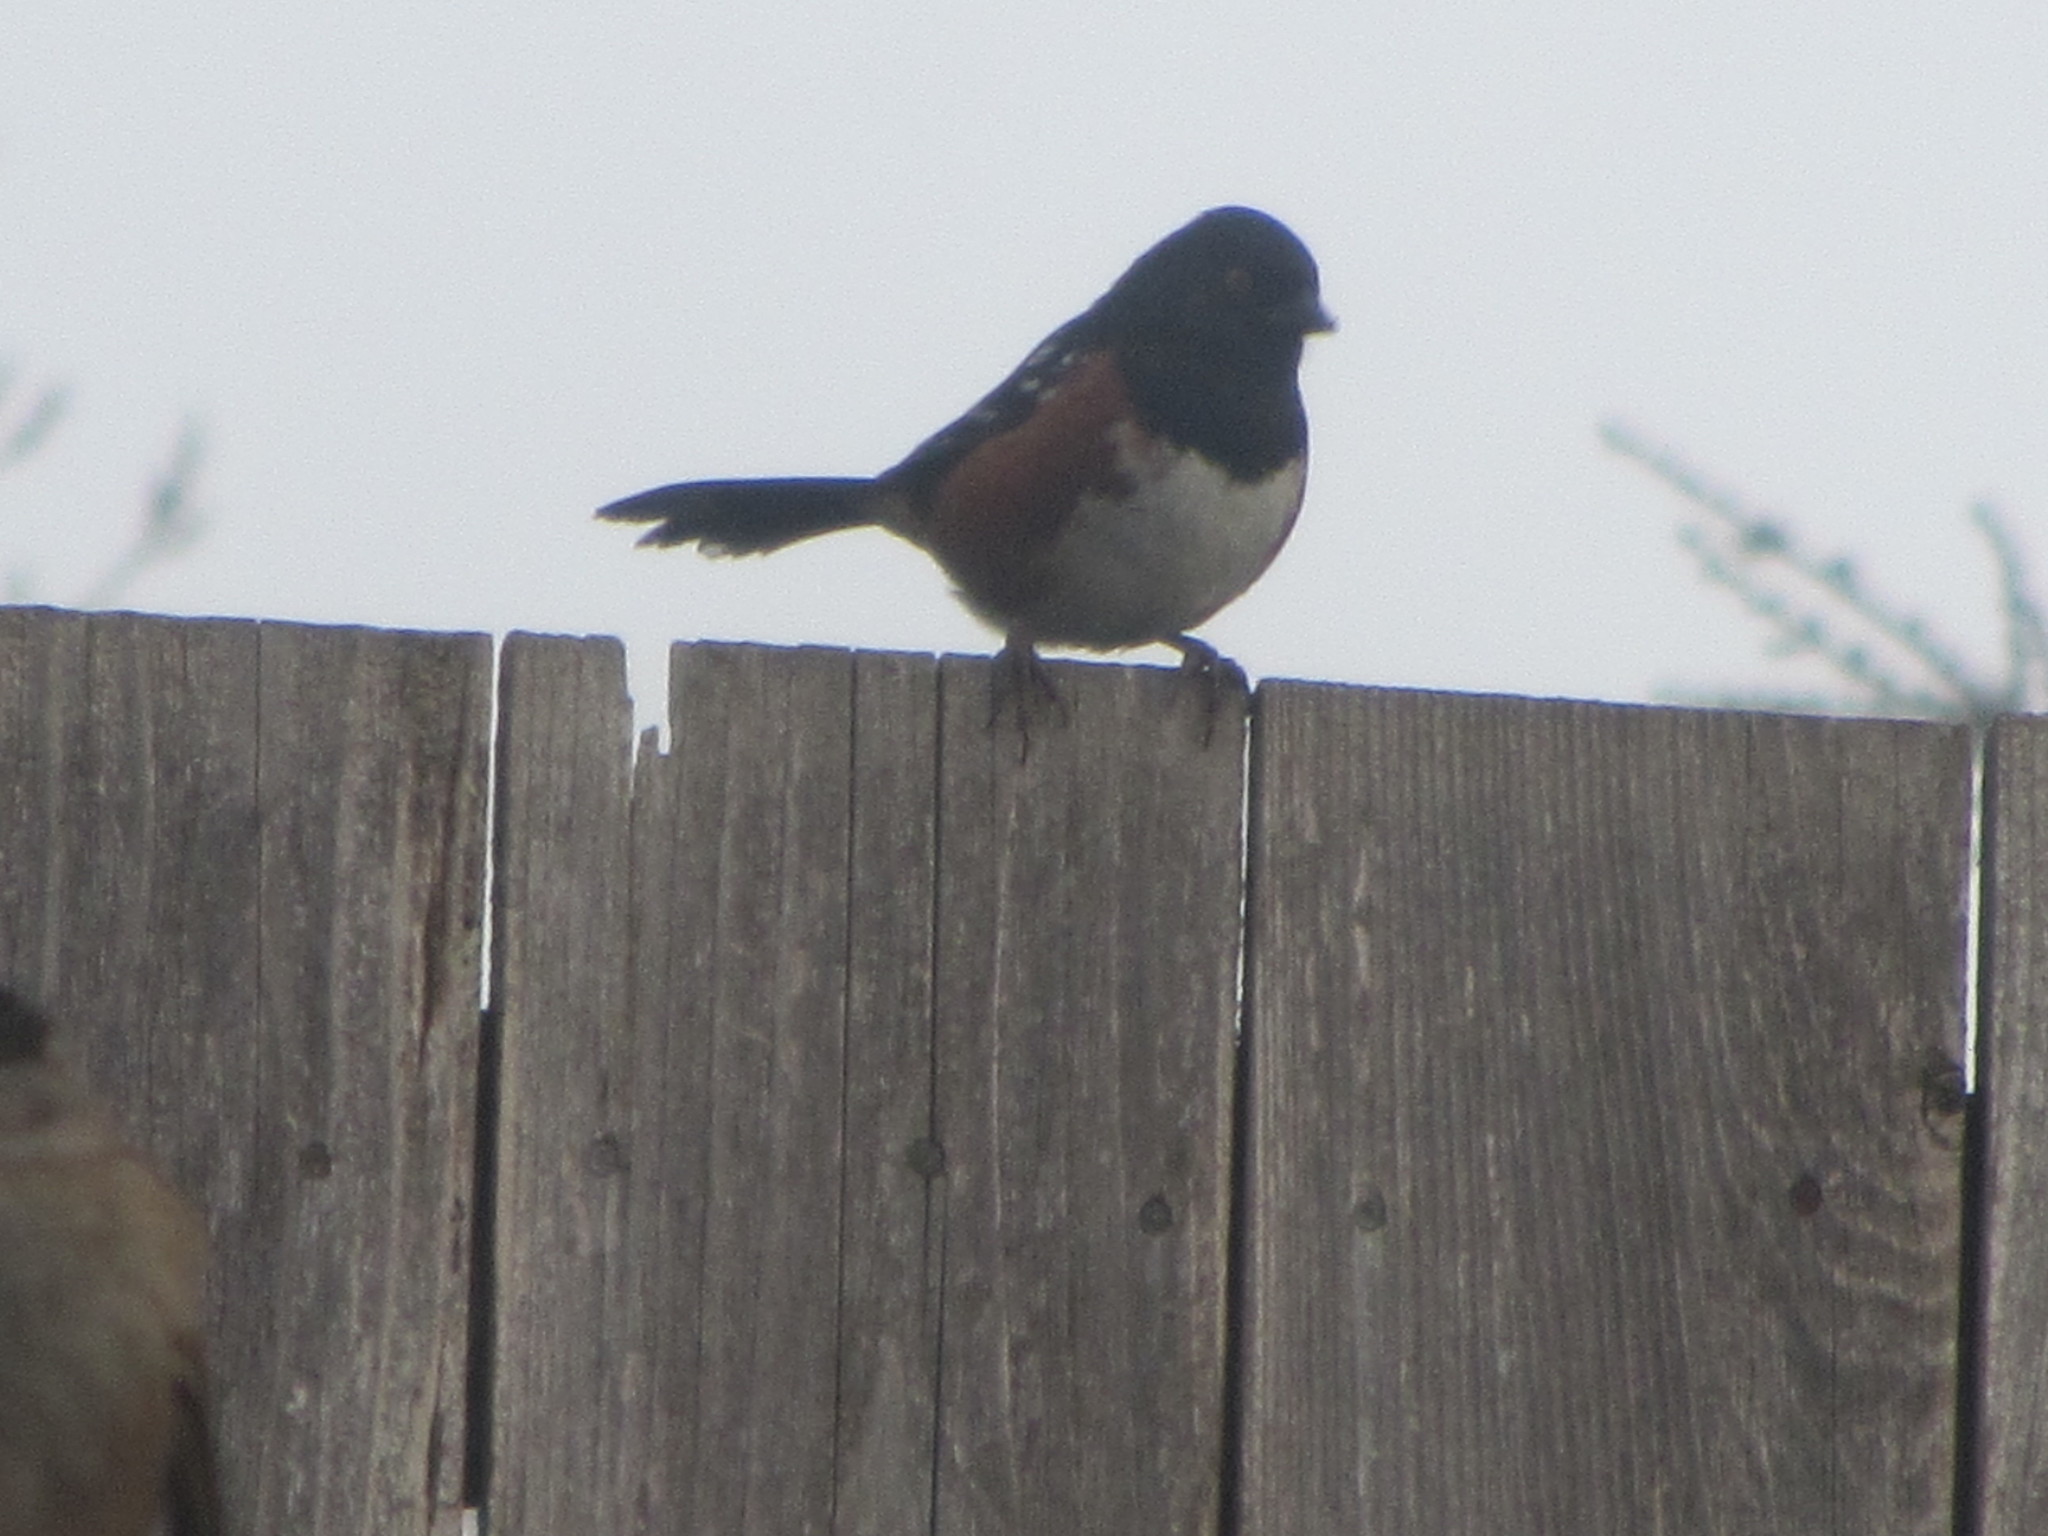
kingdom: Animalia
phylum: Chordata
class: Aves
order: Passeriformes
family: Passerellidae
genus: Pipilo
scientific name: Pipilo maculatus
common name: Spotted towhee
